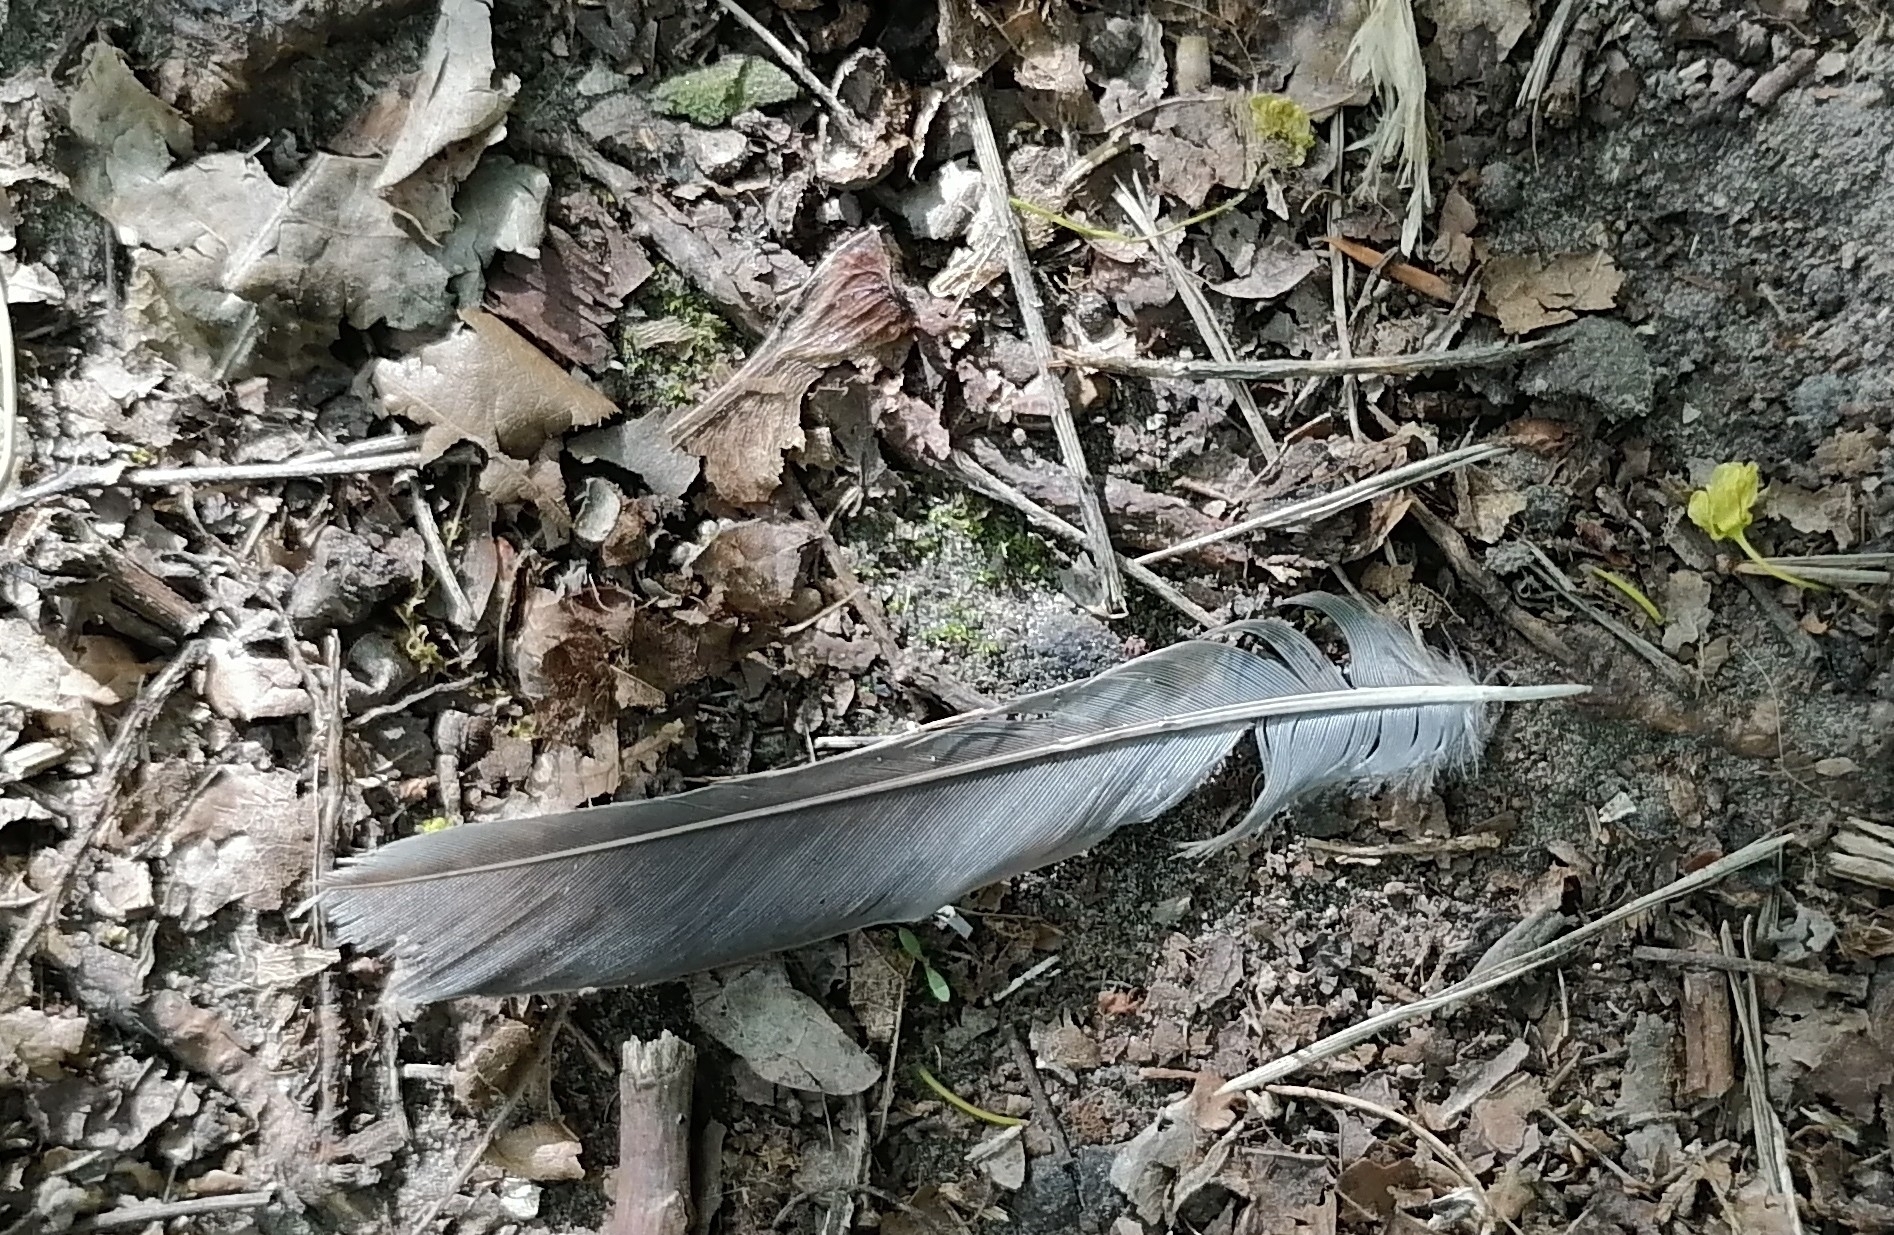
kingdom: Animalia
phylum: Chordata
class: Aves
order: Passeriformes
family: Turdidae
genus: Turdus
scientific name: Turdus pilaris
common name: Fieldfare
